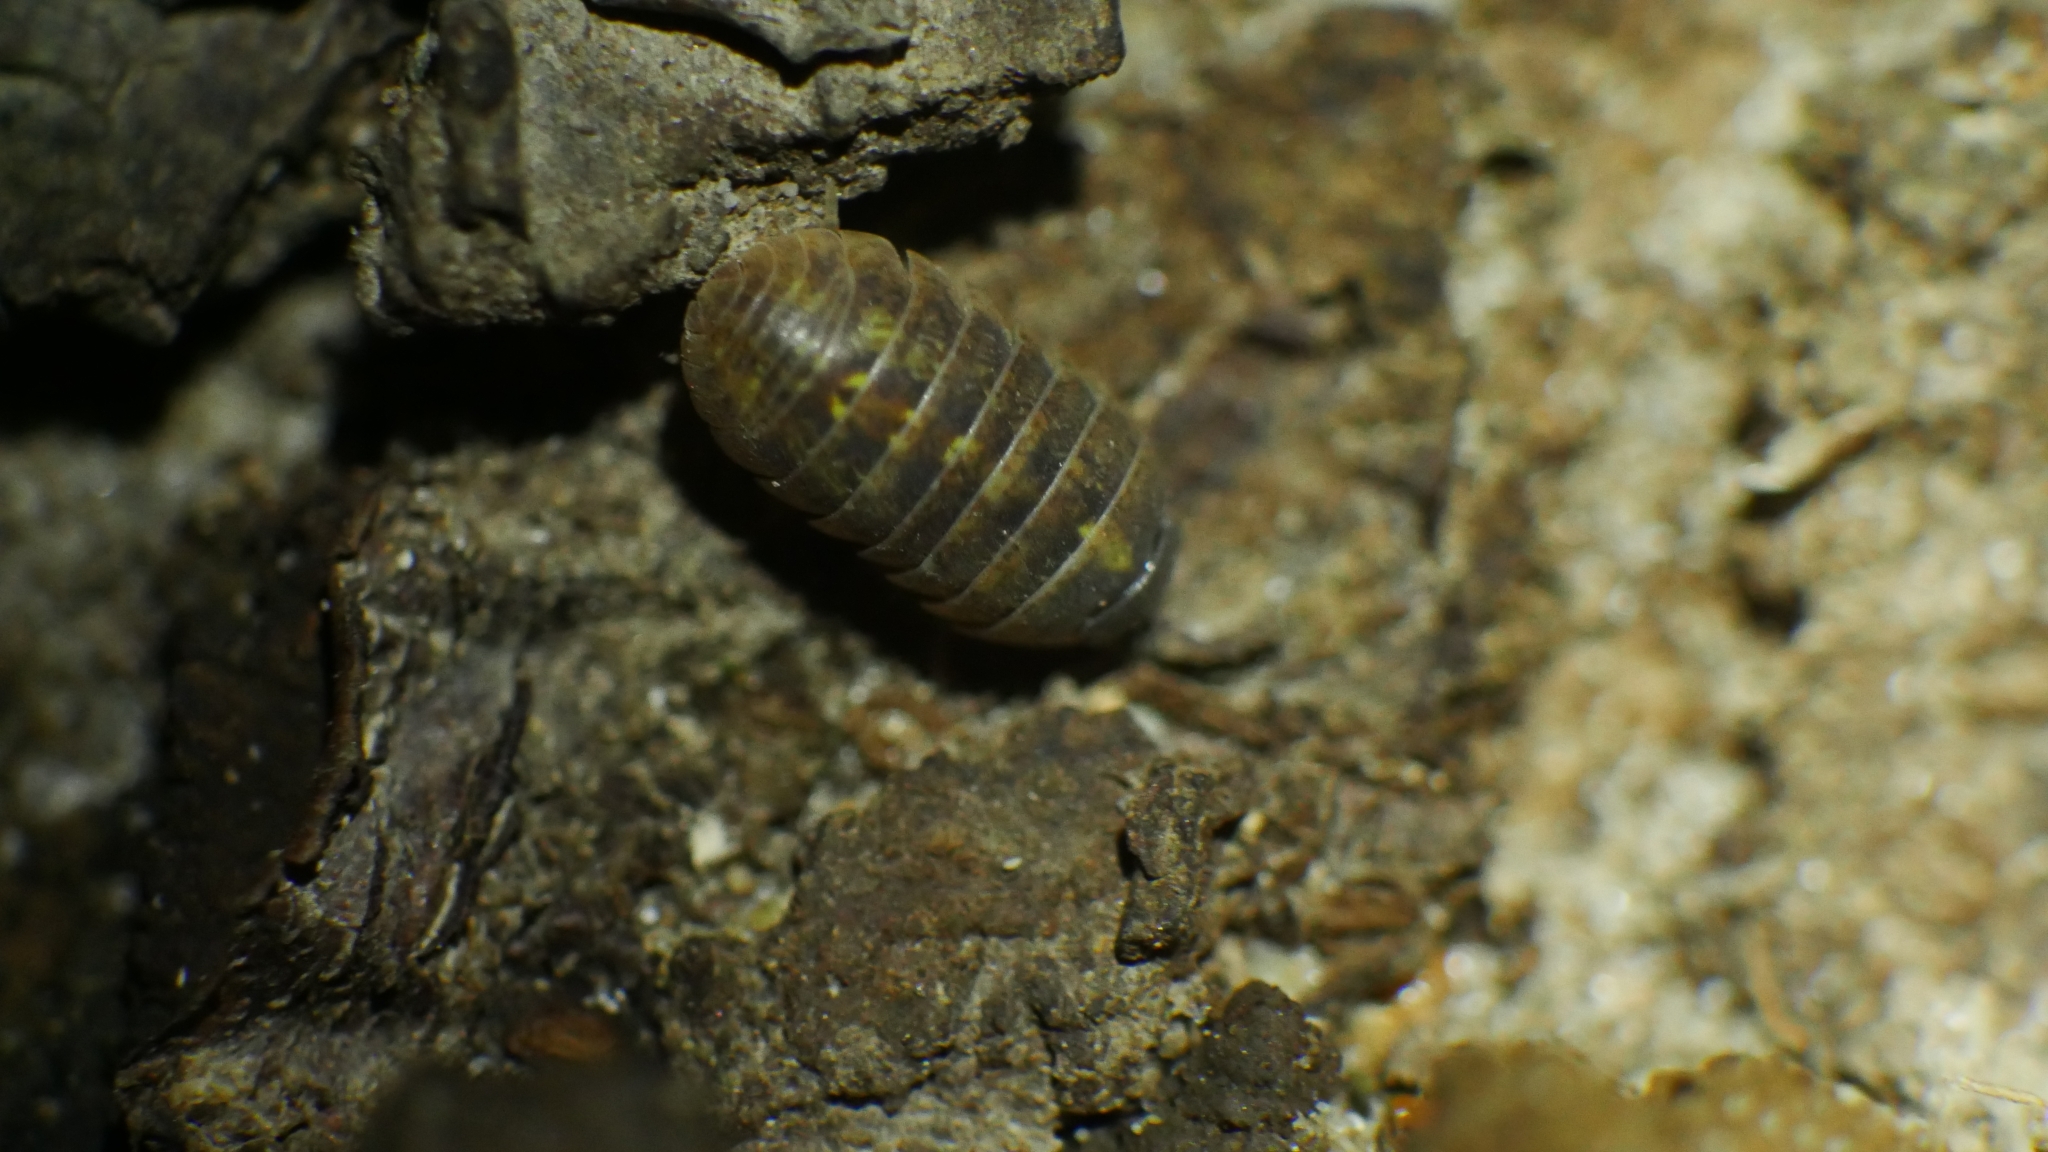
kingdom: Animalia
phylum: Arthropoda
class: Malacostraca
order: Isopoda
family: Armadillidiidae
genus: Armadillidium
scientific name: Armadillidium vulgare
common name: Common pill woodlouse
